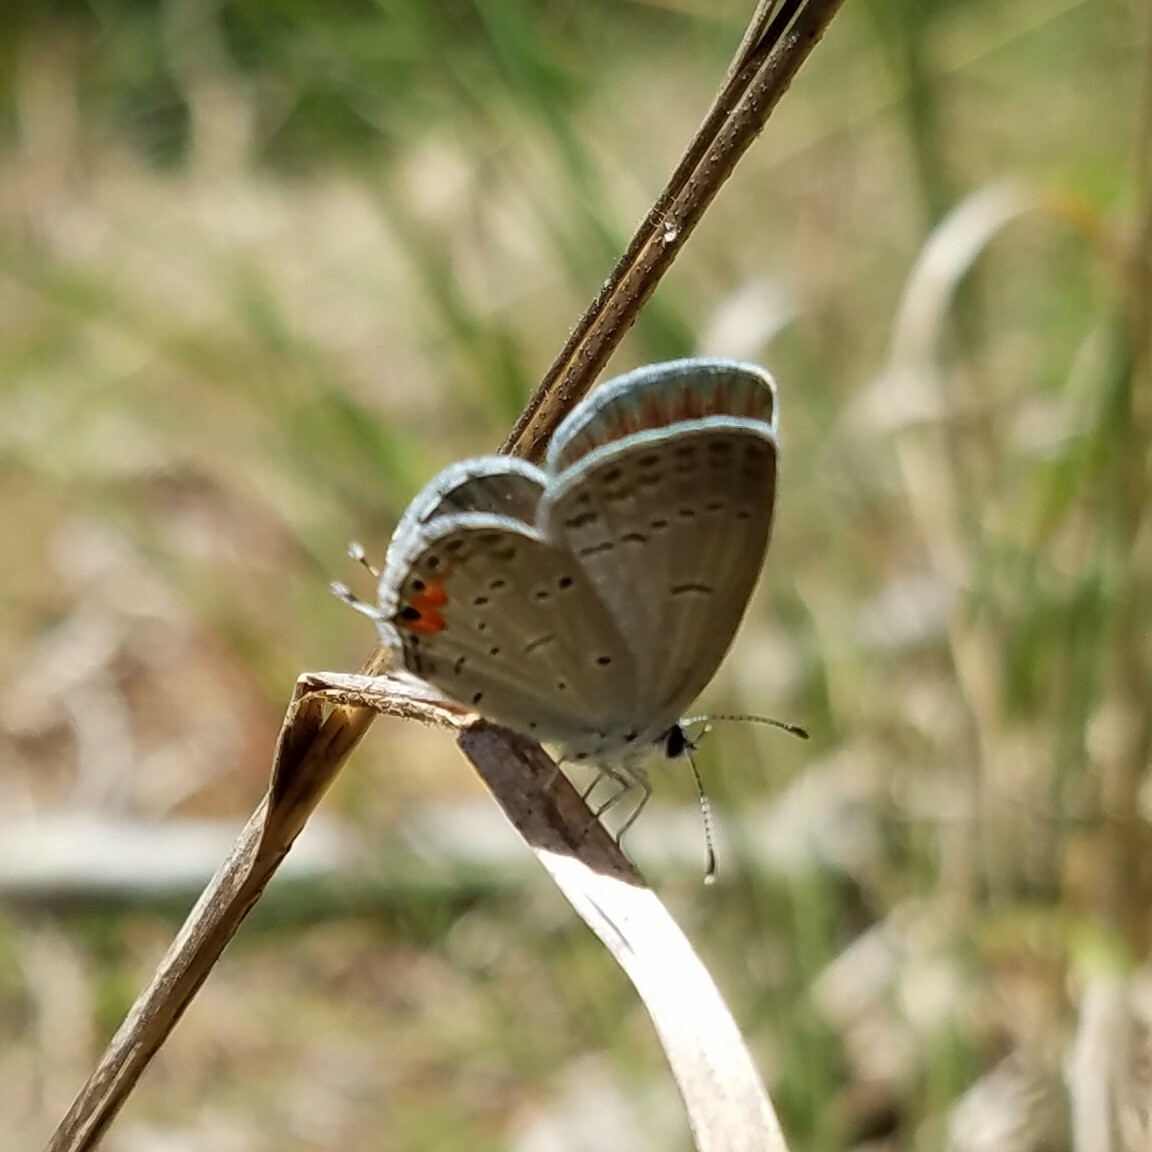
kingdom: Animalia
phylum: Arthropoda
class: Insecta
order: Lepidoptera
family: Lycaenidae
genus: Elkalyce
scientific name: Elkalyce comyntas
